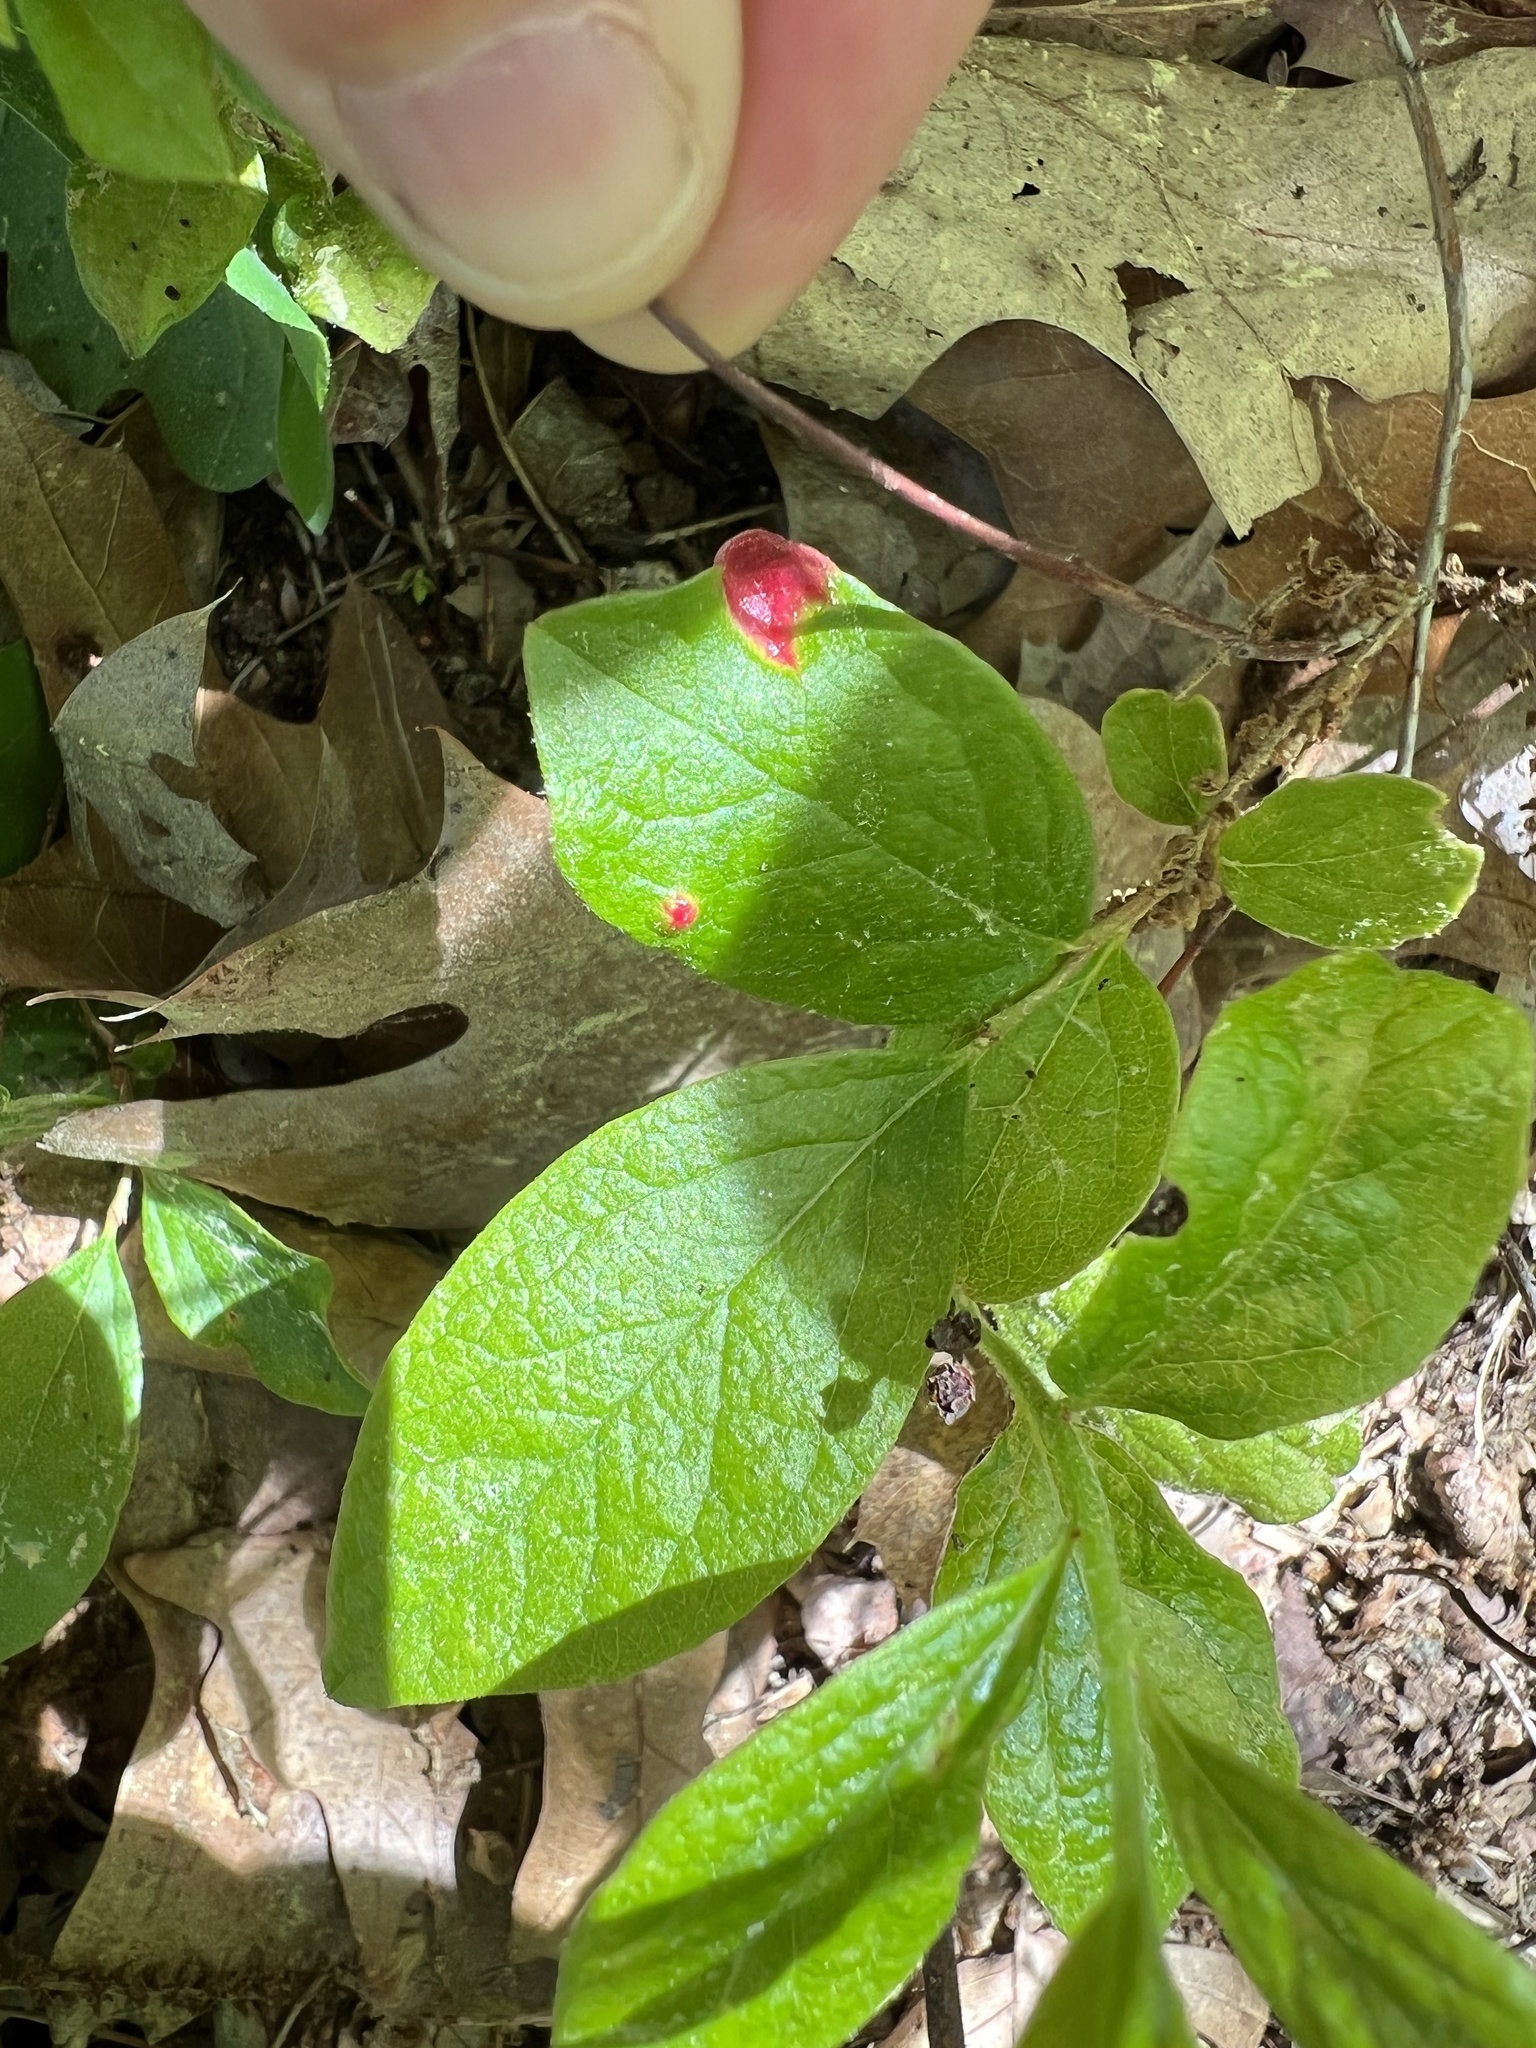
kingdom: Fungi
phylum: Basidiomycota
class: Exobasidiomycetes
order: Exobasidiales
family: Exobasidiaceae
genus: Exobasidium
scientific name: Exobasidium vaccinii
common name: Cowberry redleaf
